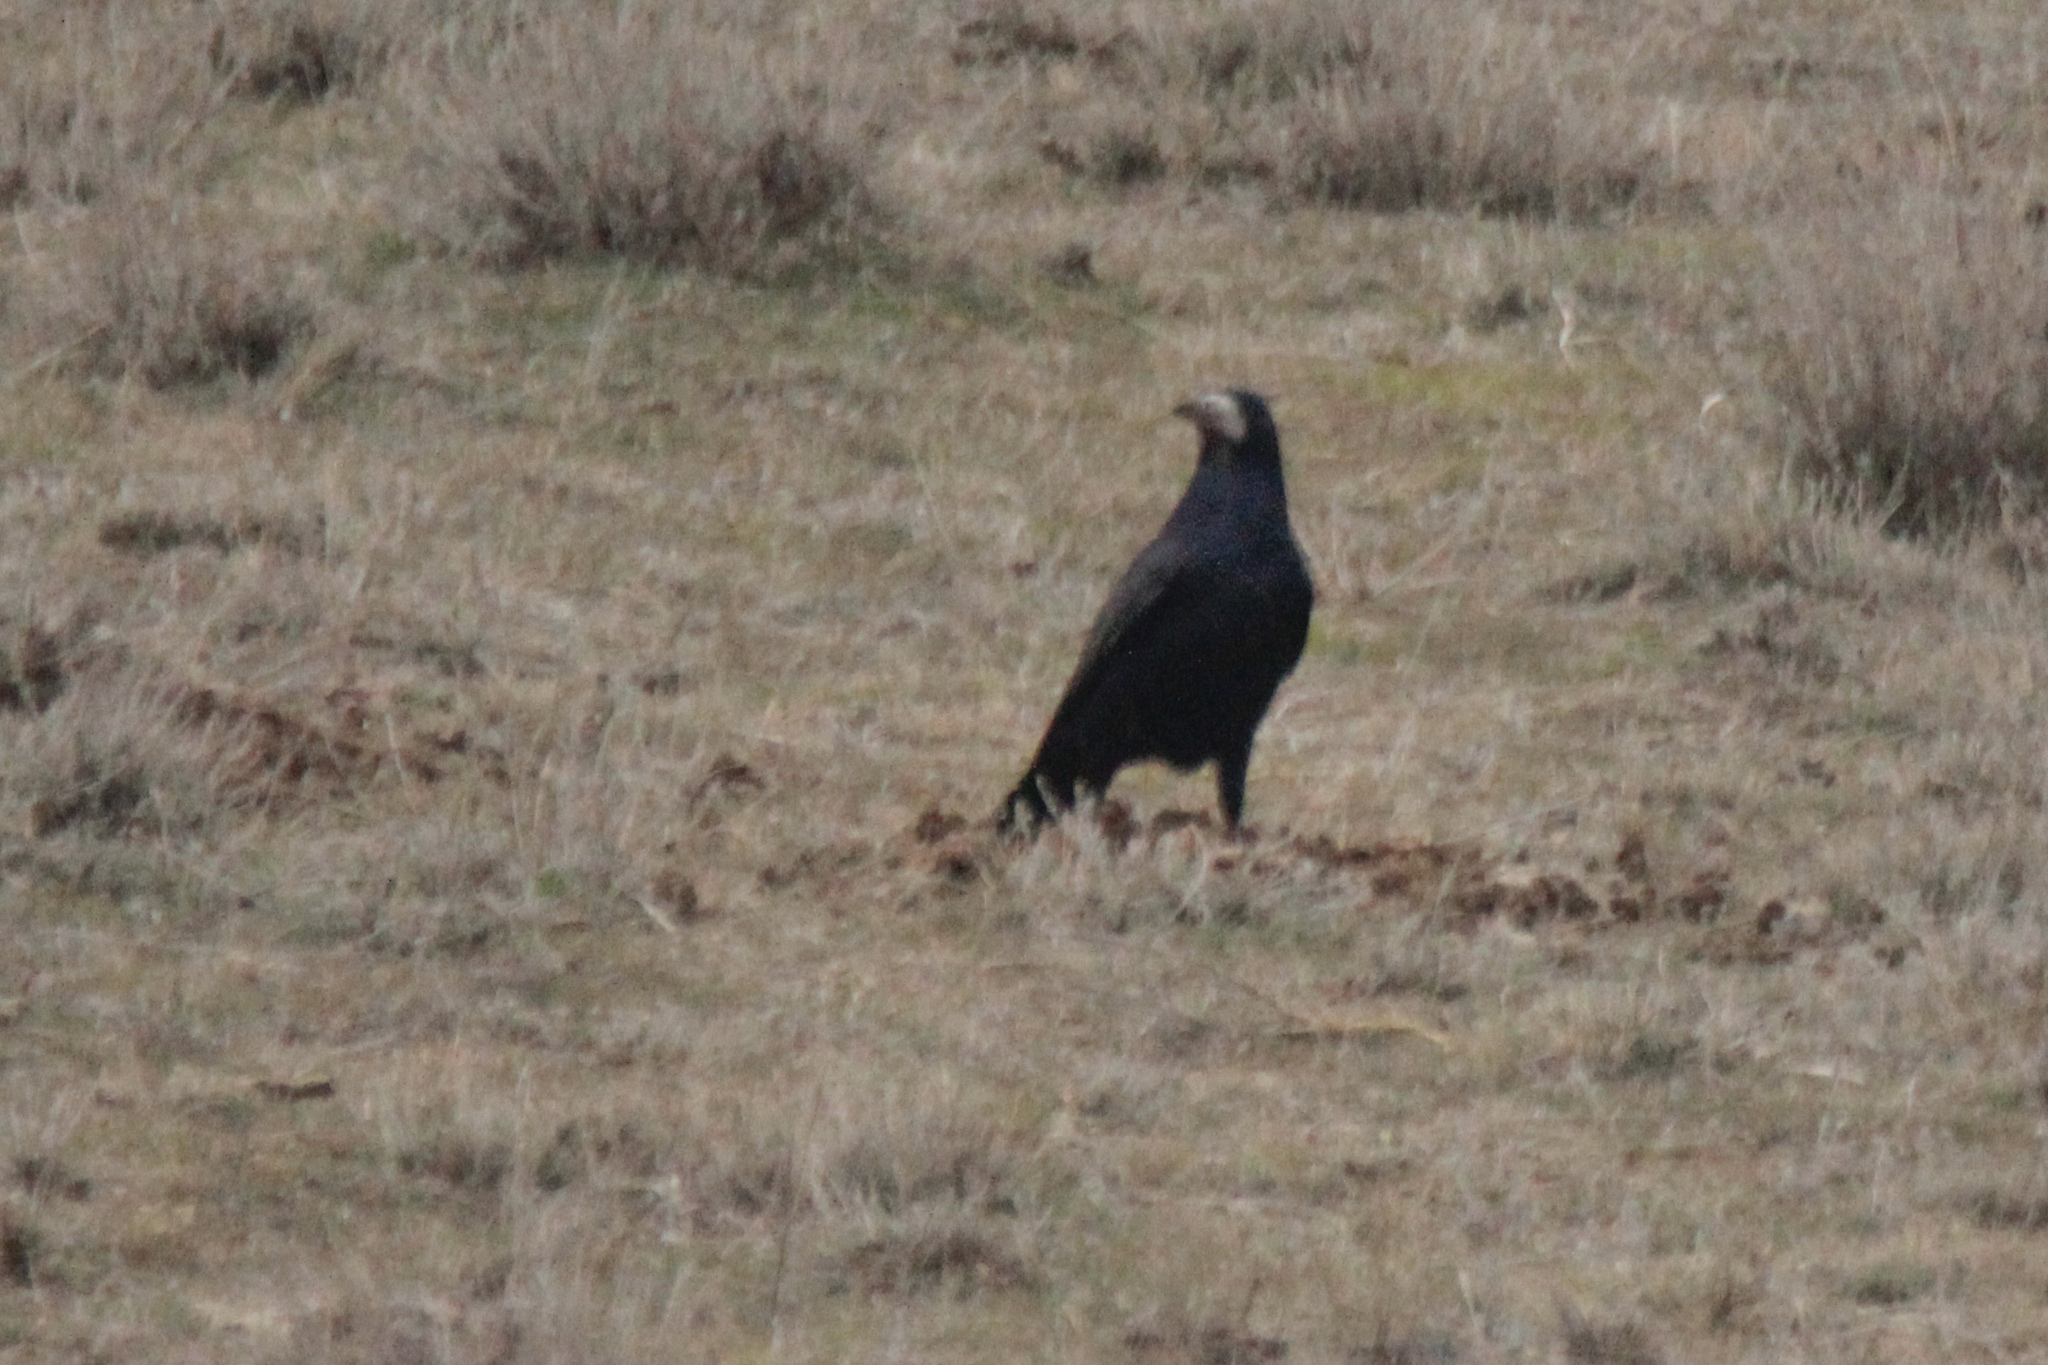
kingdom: Animalia
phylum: Chordata
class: Aves
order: Passeriformes
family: Corvidae
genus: Corvus
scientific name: Corvus frugilegus
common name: Rook
